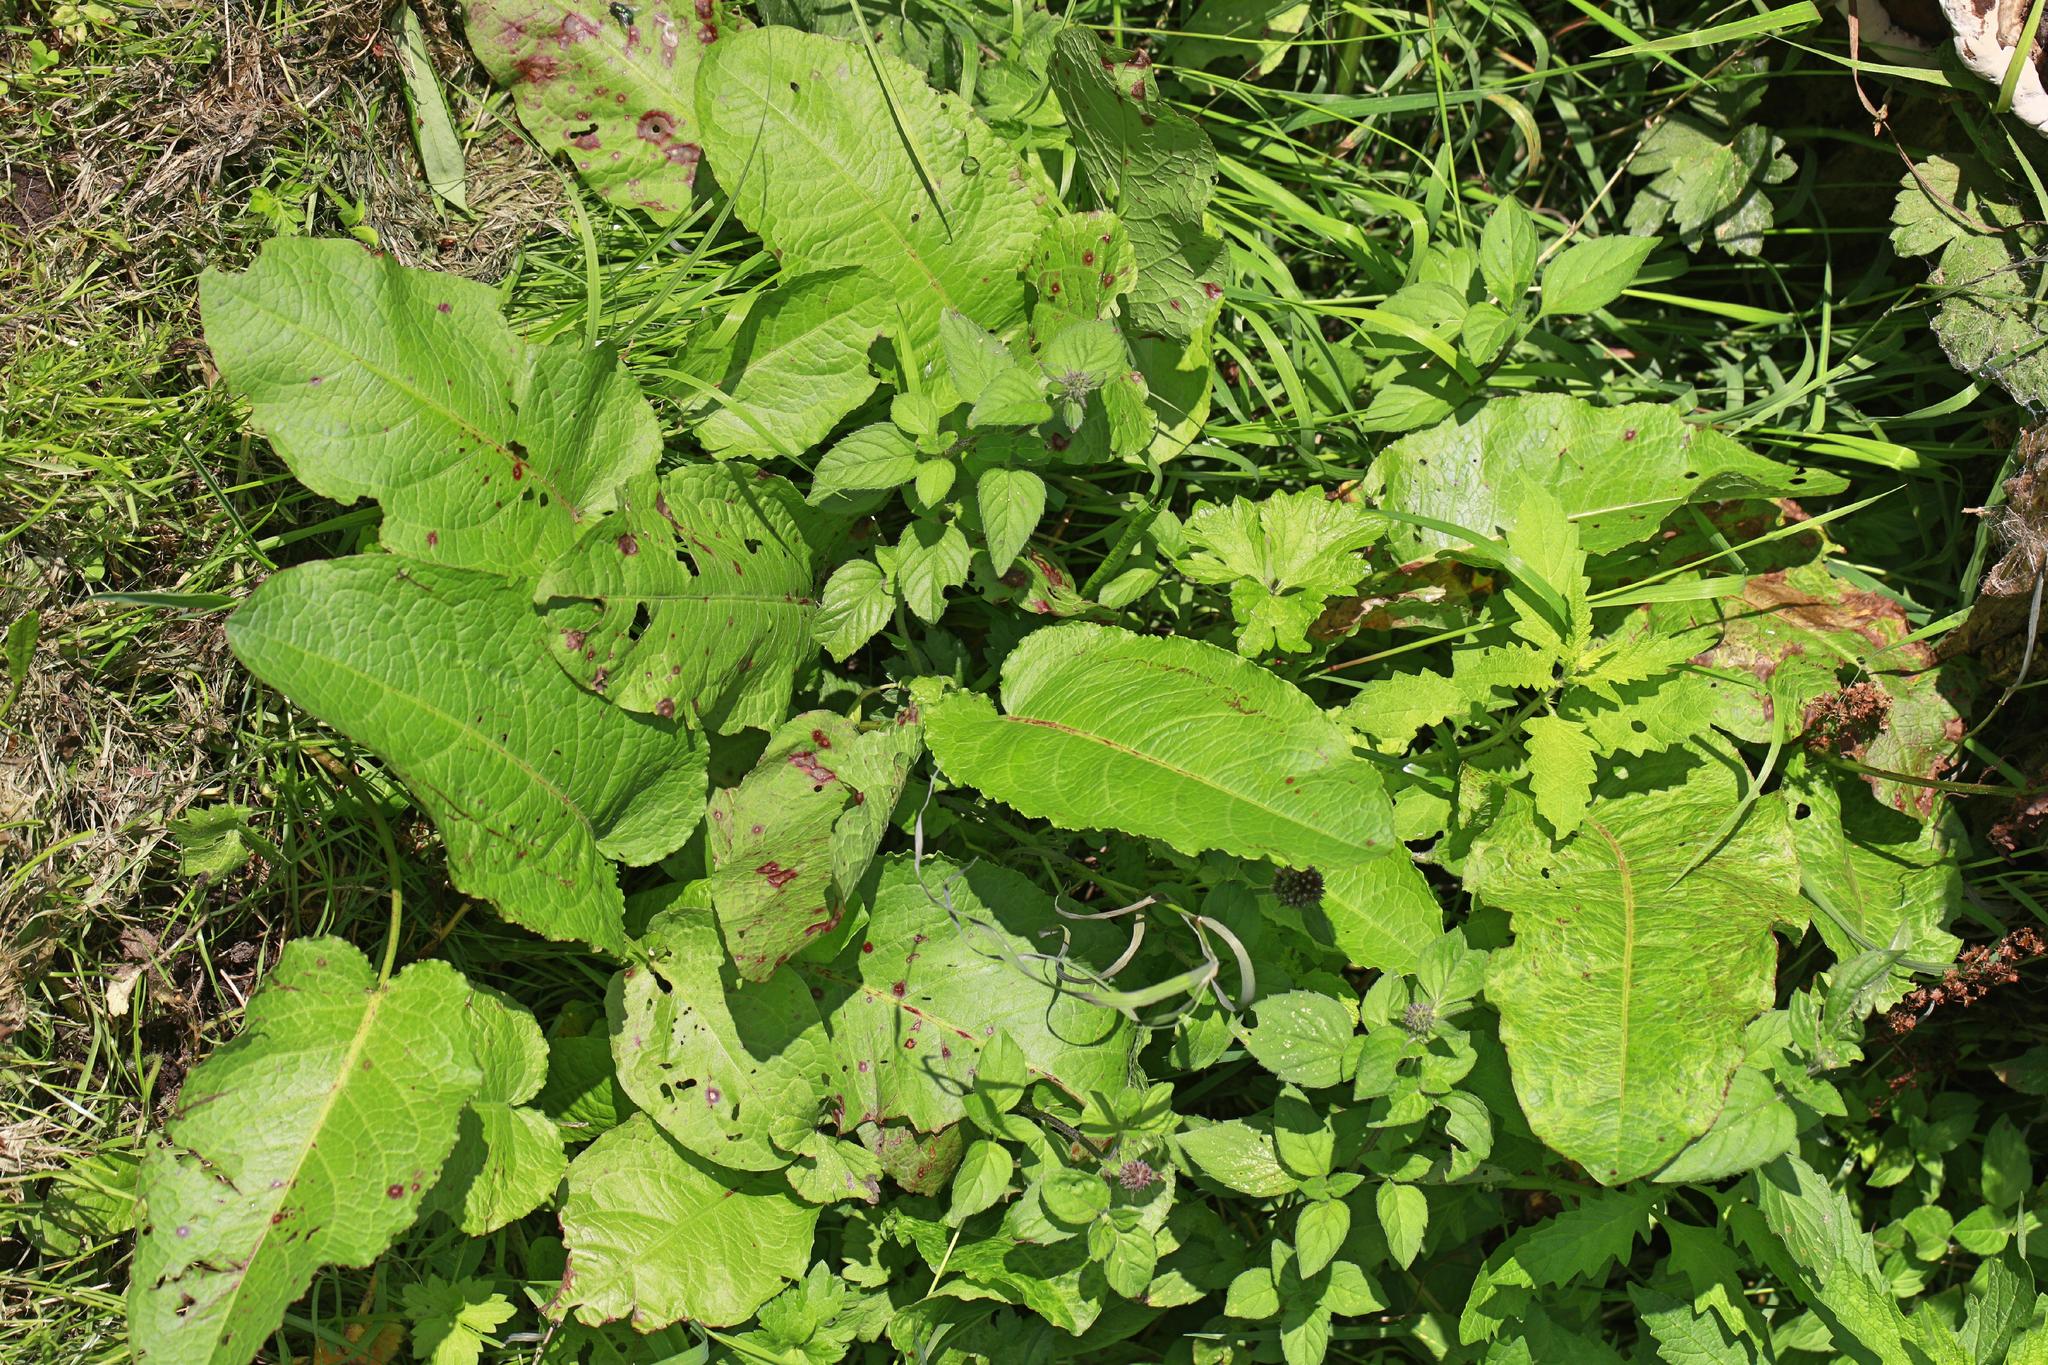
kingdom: Plantae
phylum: Tracheophyta
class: Magnoliopsida
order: Caryophyllales
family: Polygonaceae
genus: Rumex
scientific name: Rumex obtusifolius
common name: Bitter dock
